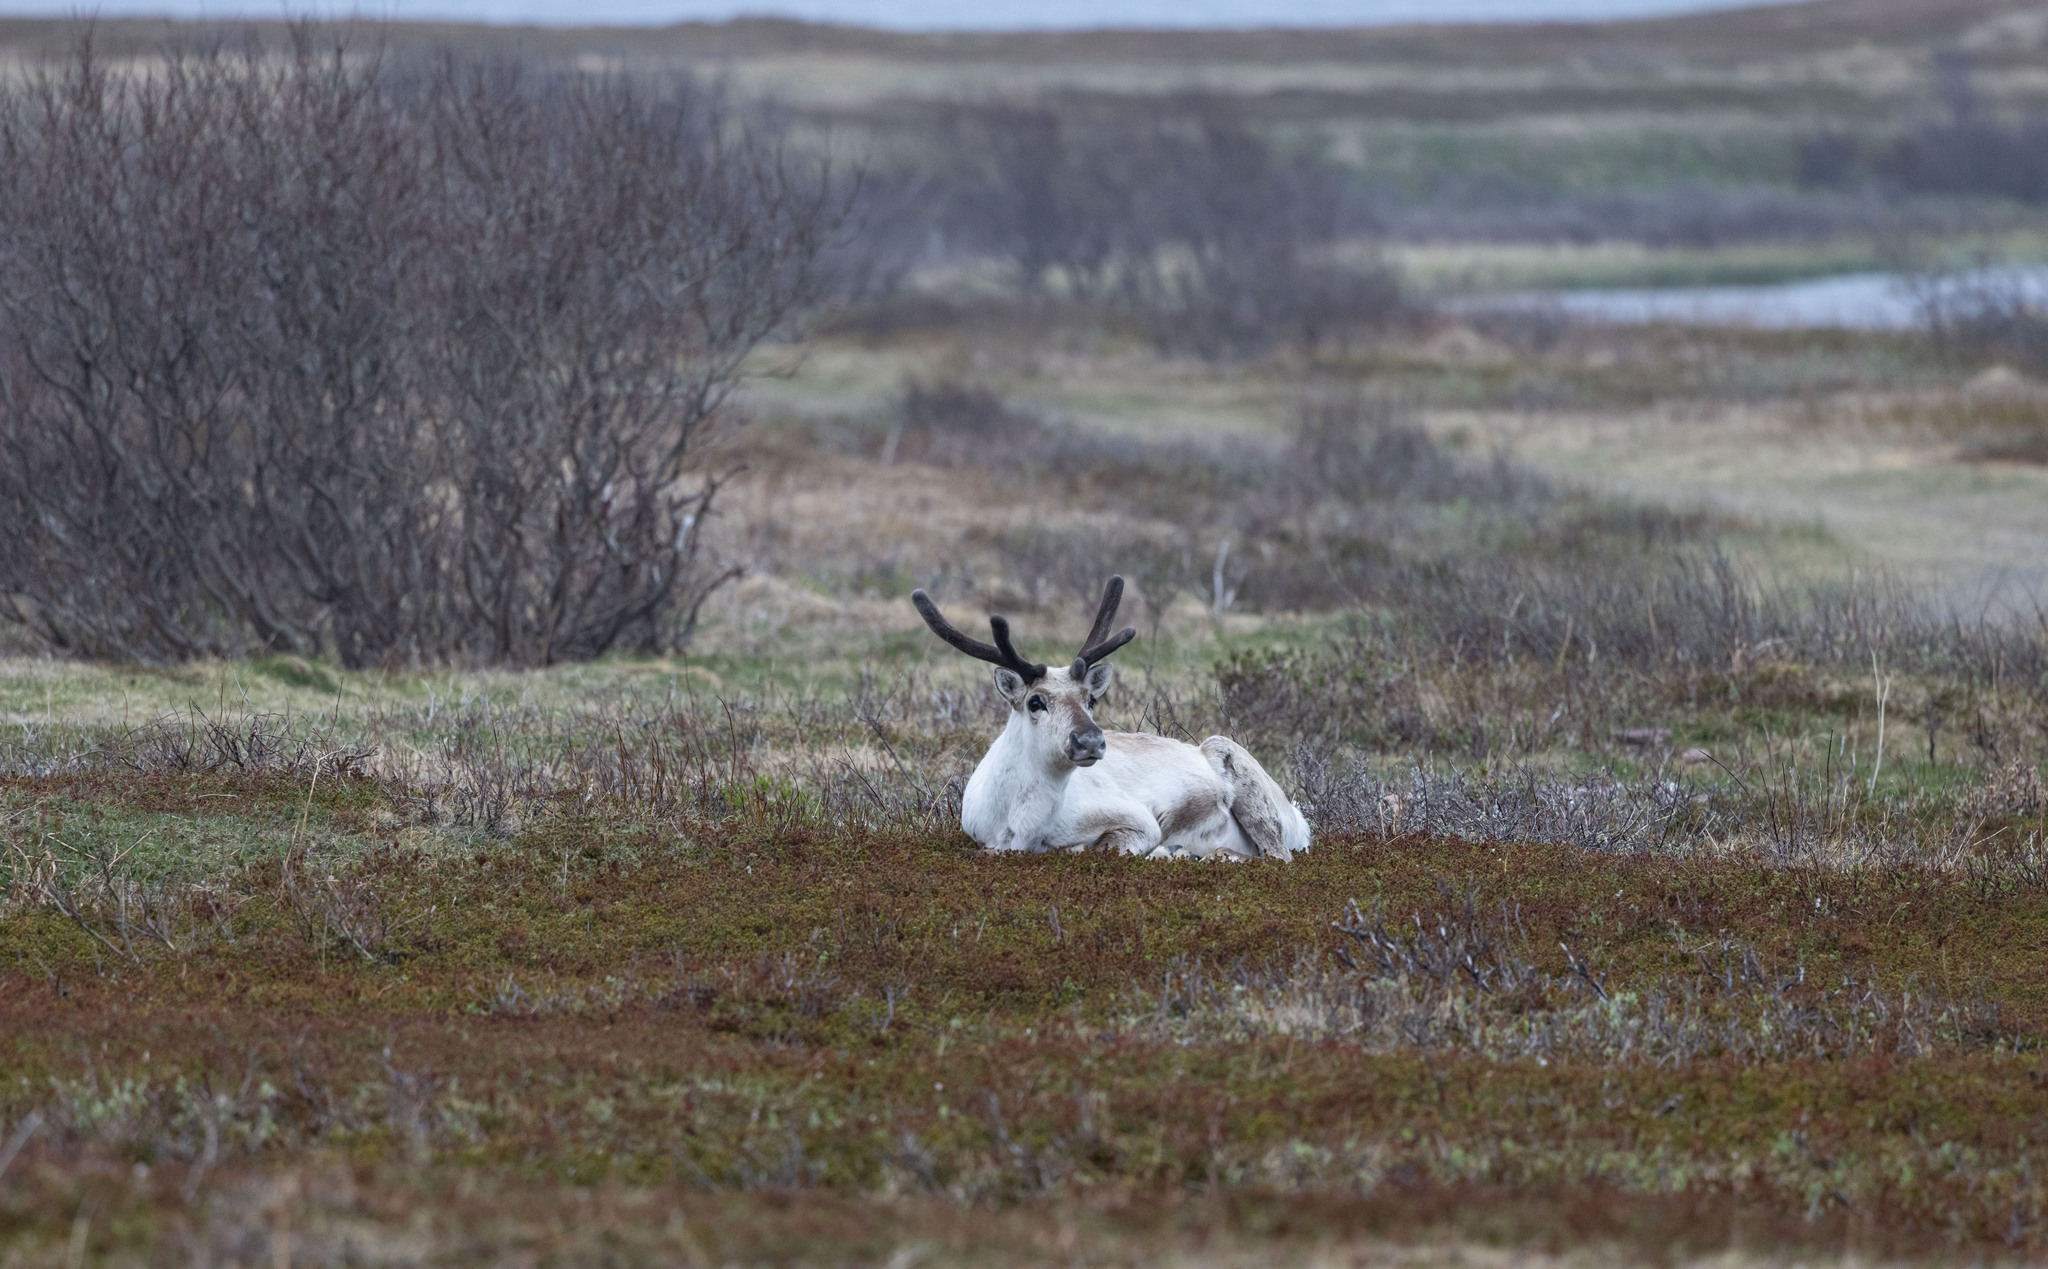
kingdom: Animalia
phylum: Chordata
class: Mammalia
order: Artiodactyla
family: Cervidae
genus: Rangifer
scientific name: Rangifer tarandus
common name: Reindeer
